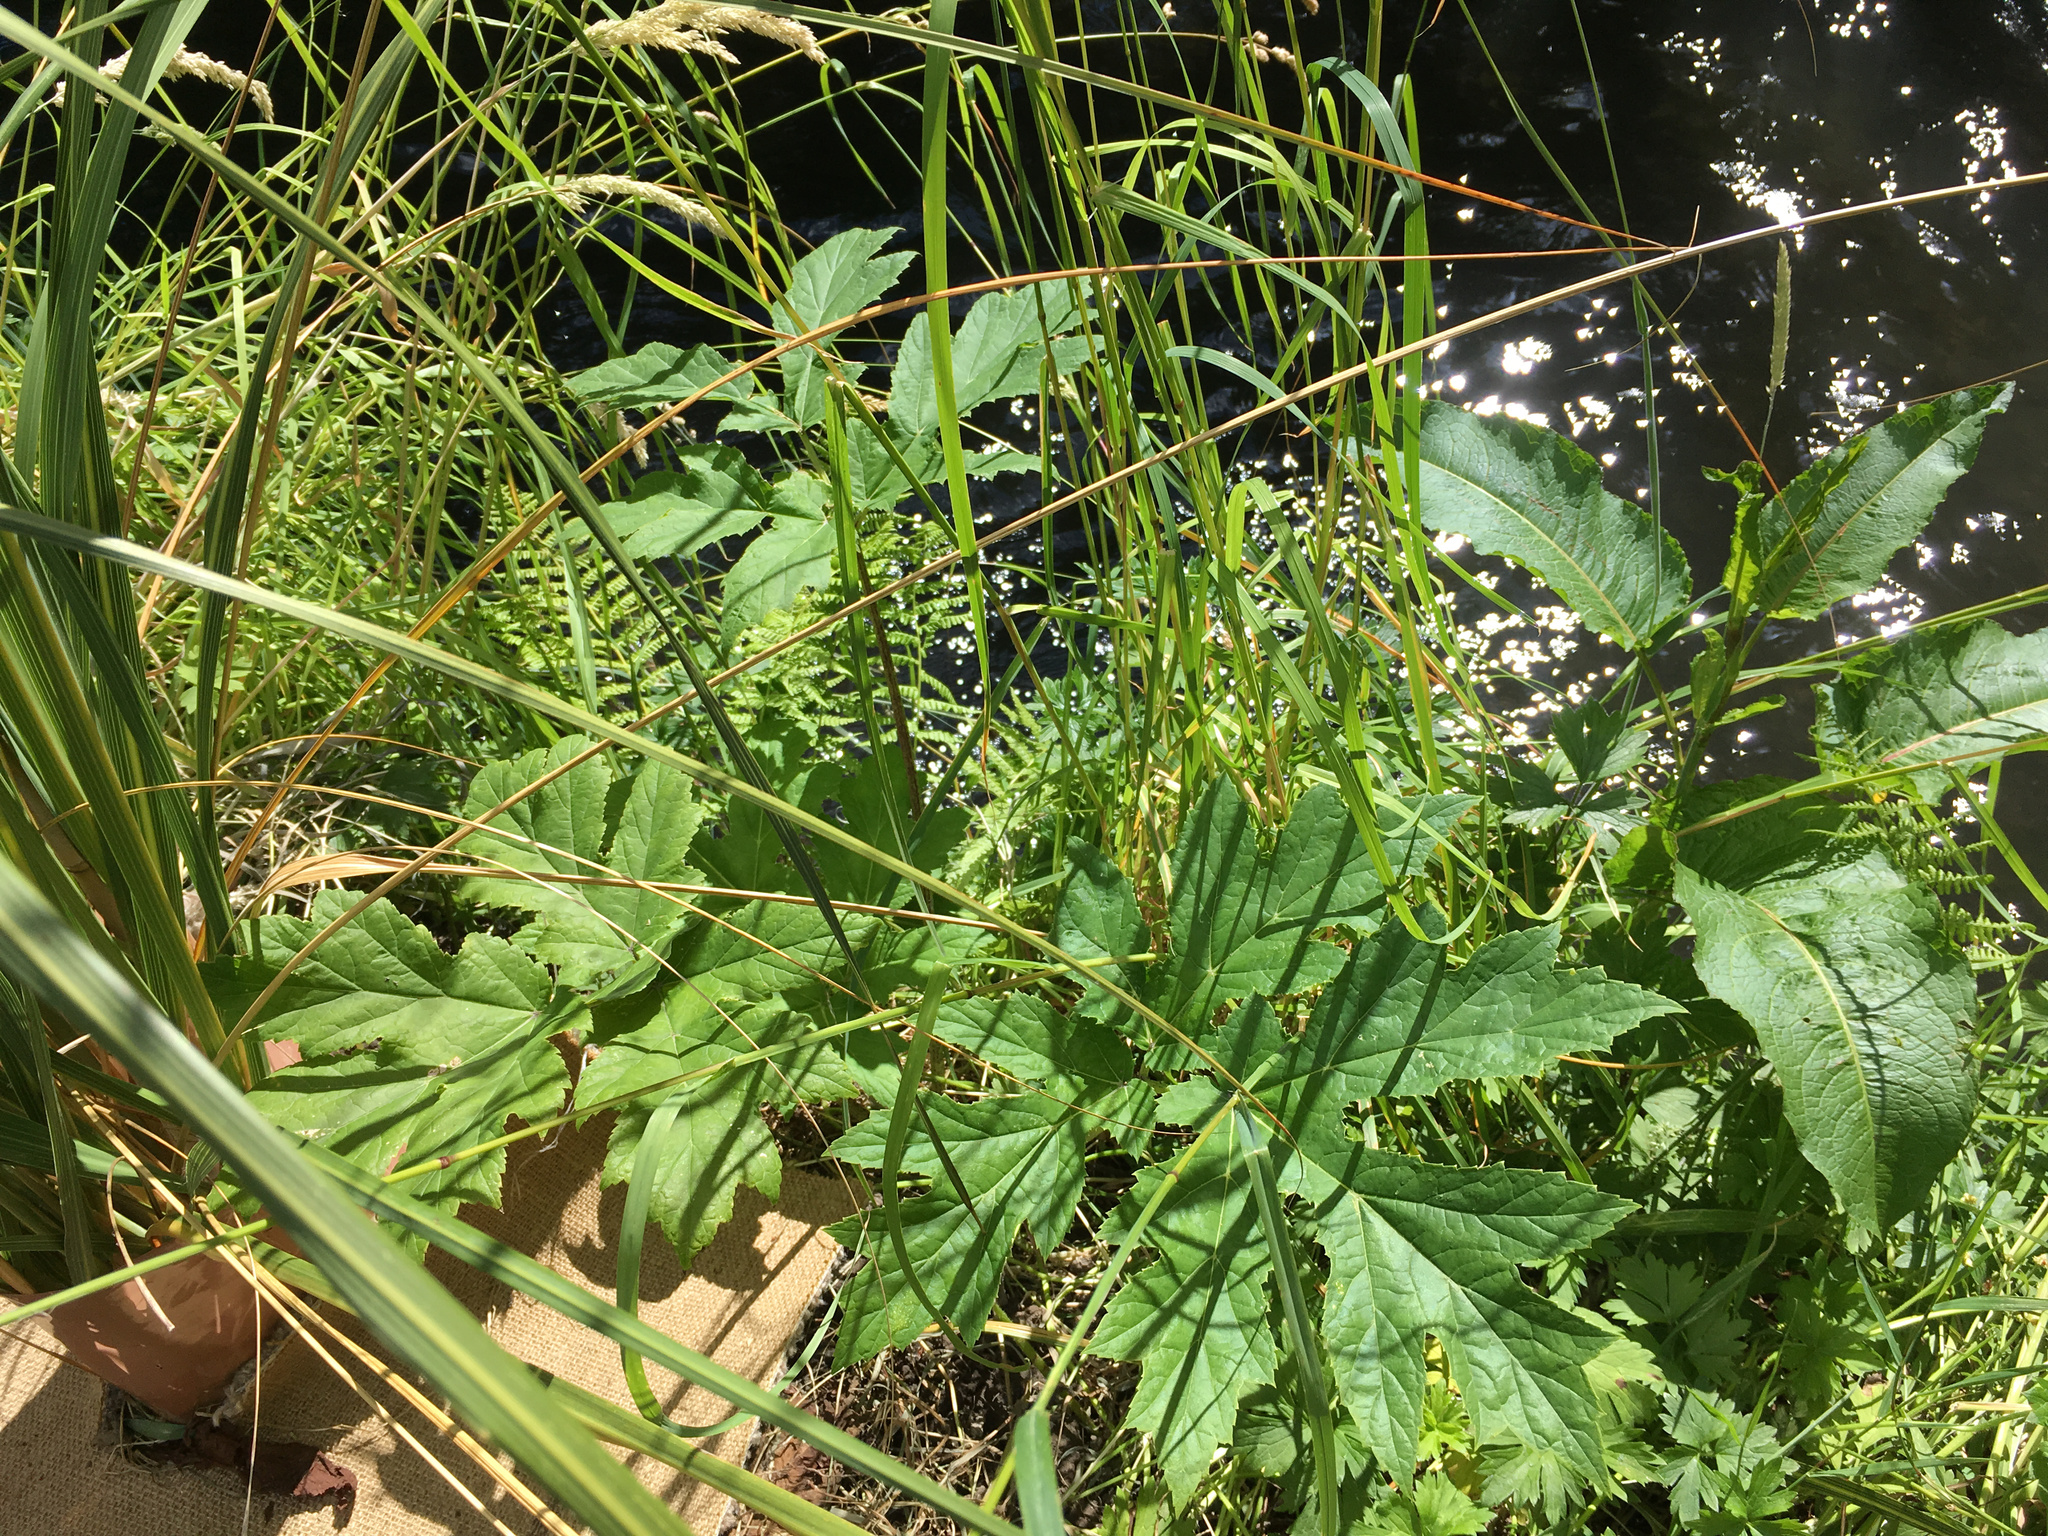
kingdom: Plantae
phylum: Tracheophyta
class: Magnoliopsida
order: Apiales
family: Apiaceae
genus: Heracleum
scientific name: Heracleum mantegazzianum
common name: Giant hogweed
